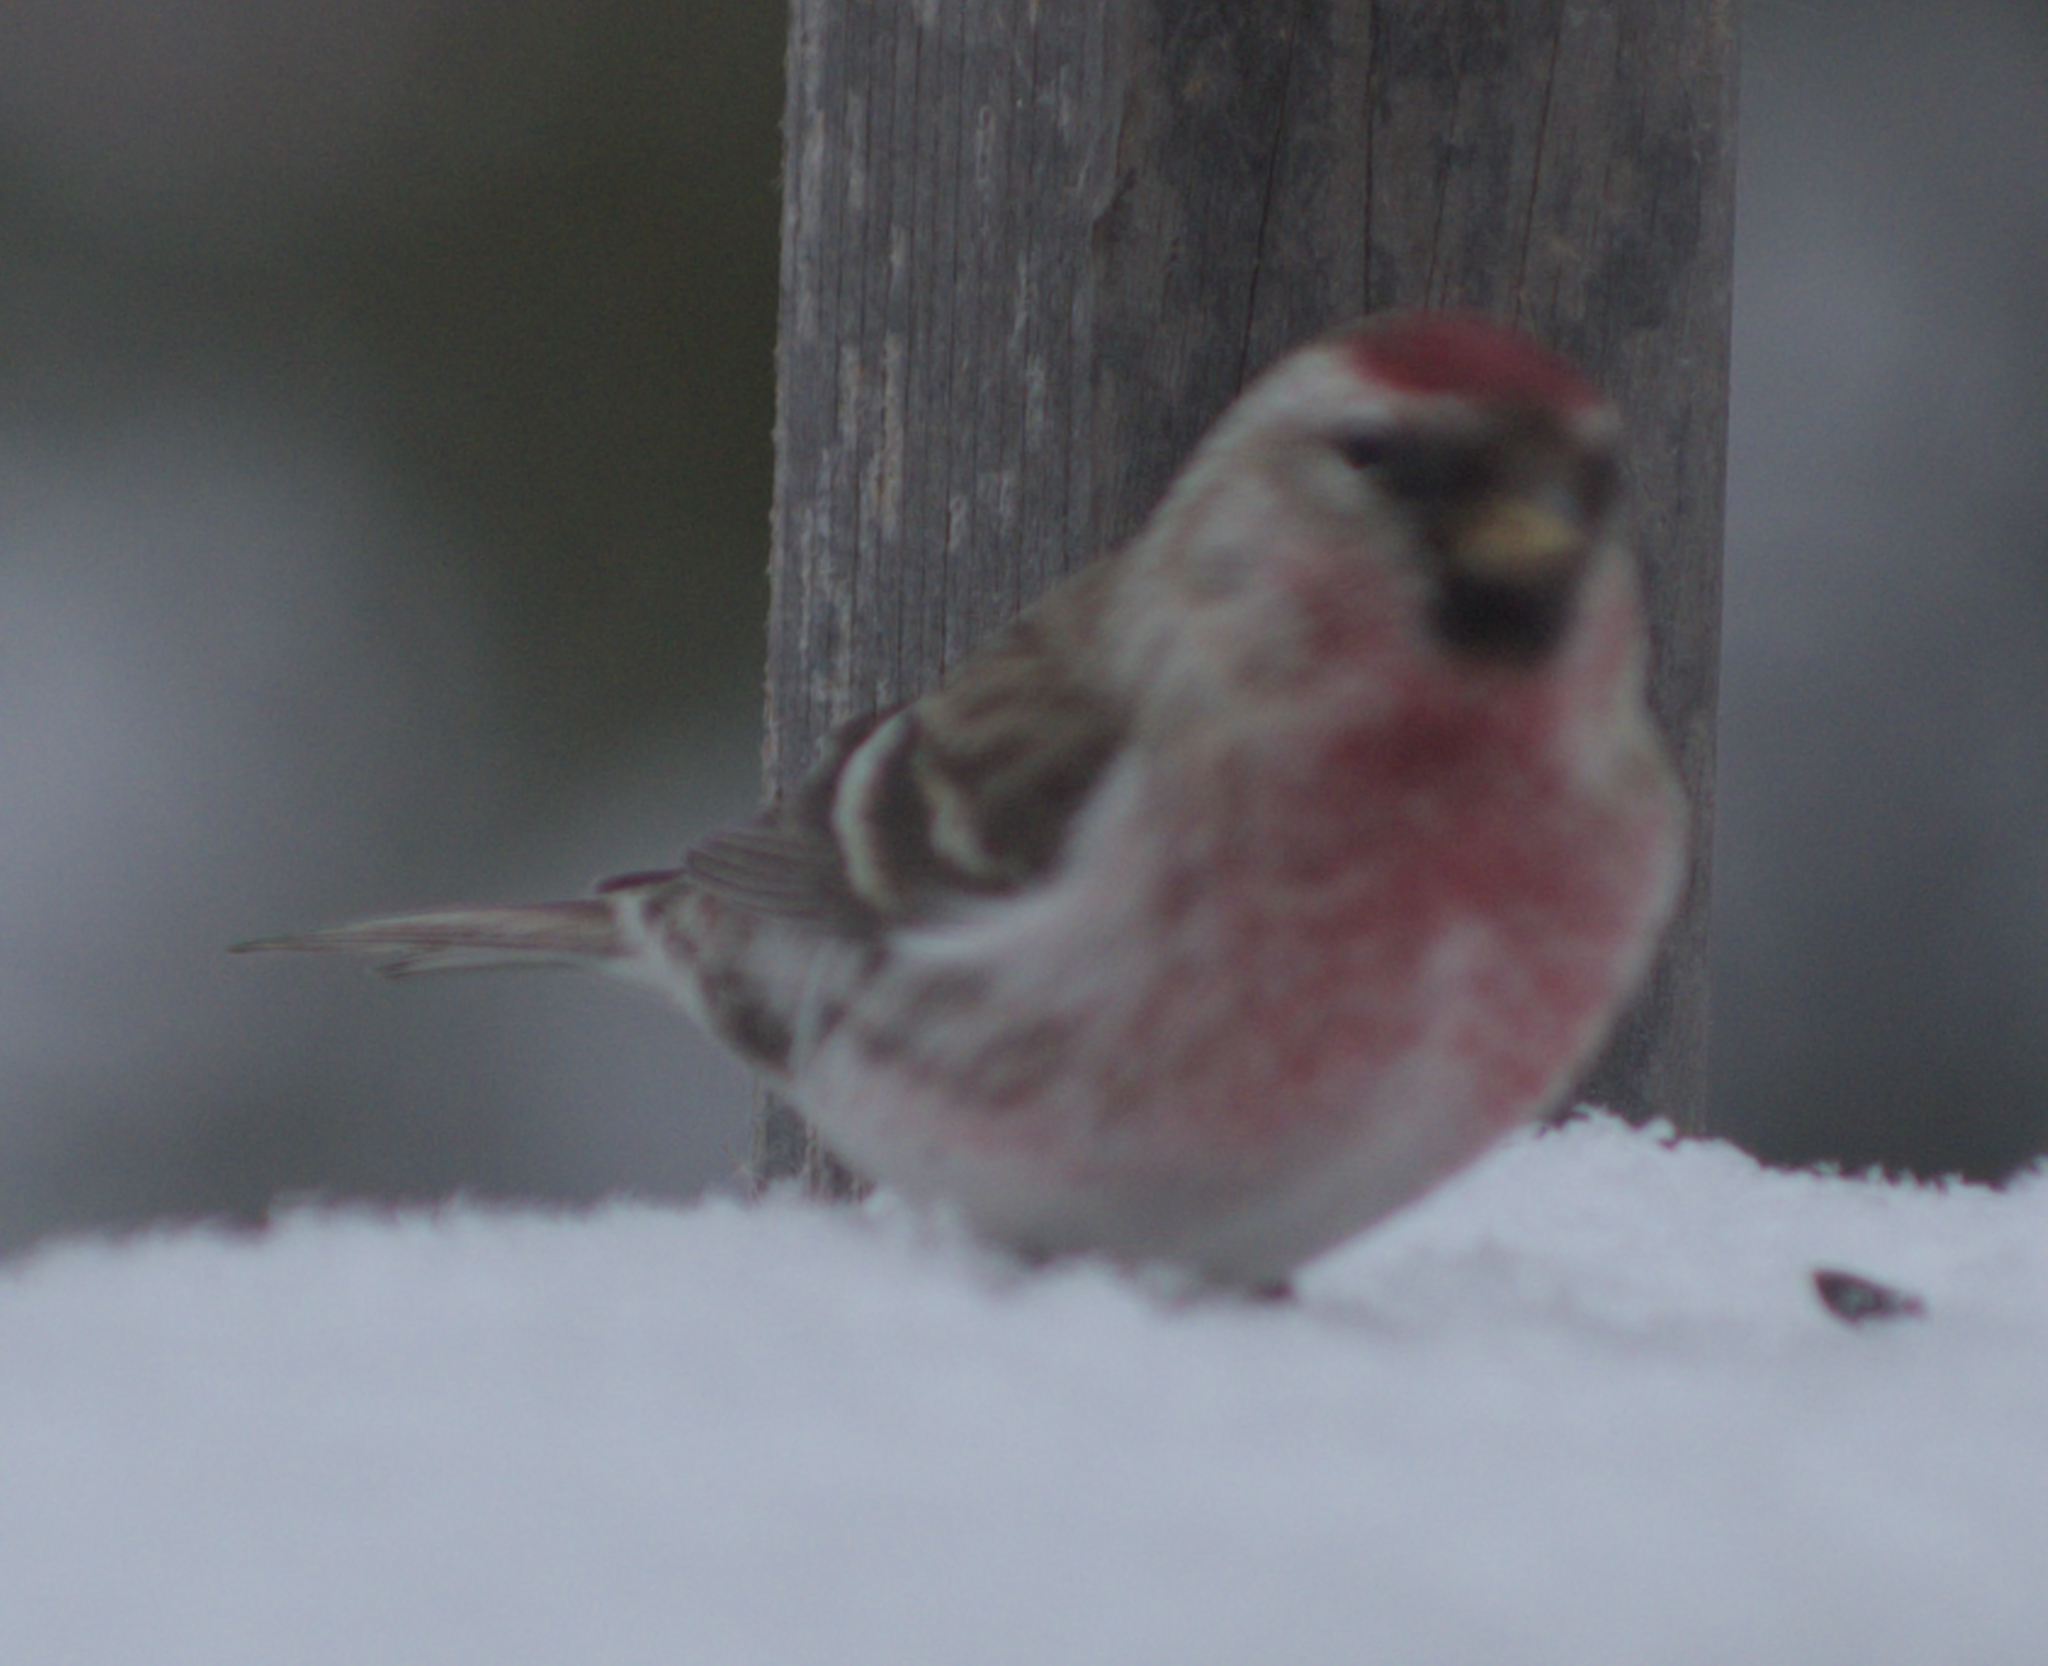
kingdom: Animalia
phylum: Chordata
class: Aves
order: Passeriformes
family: Fringillidae
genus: Acanthis
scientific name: Acanthis flammea
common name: Common redpoll
